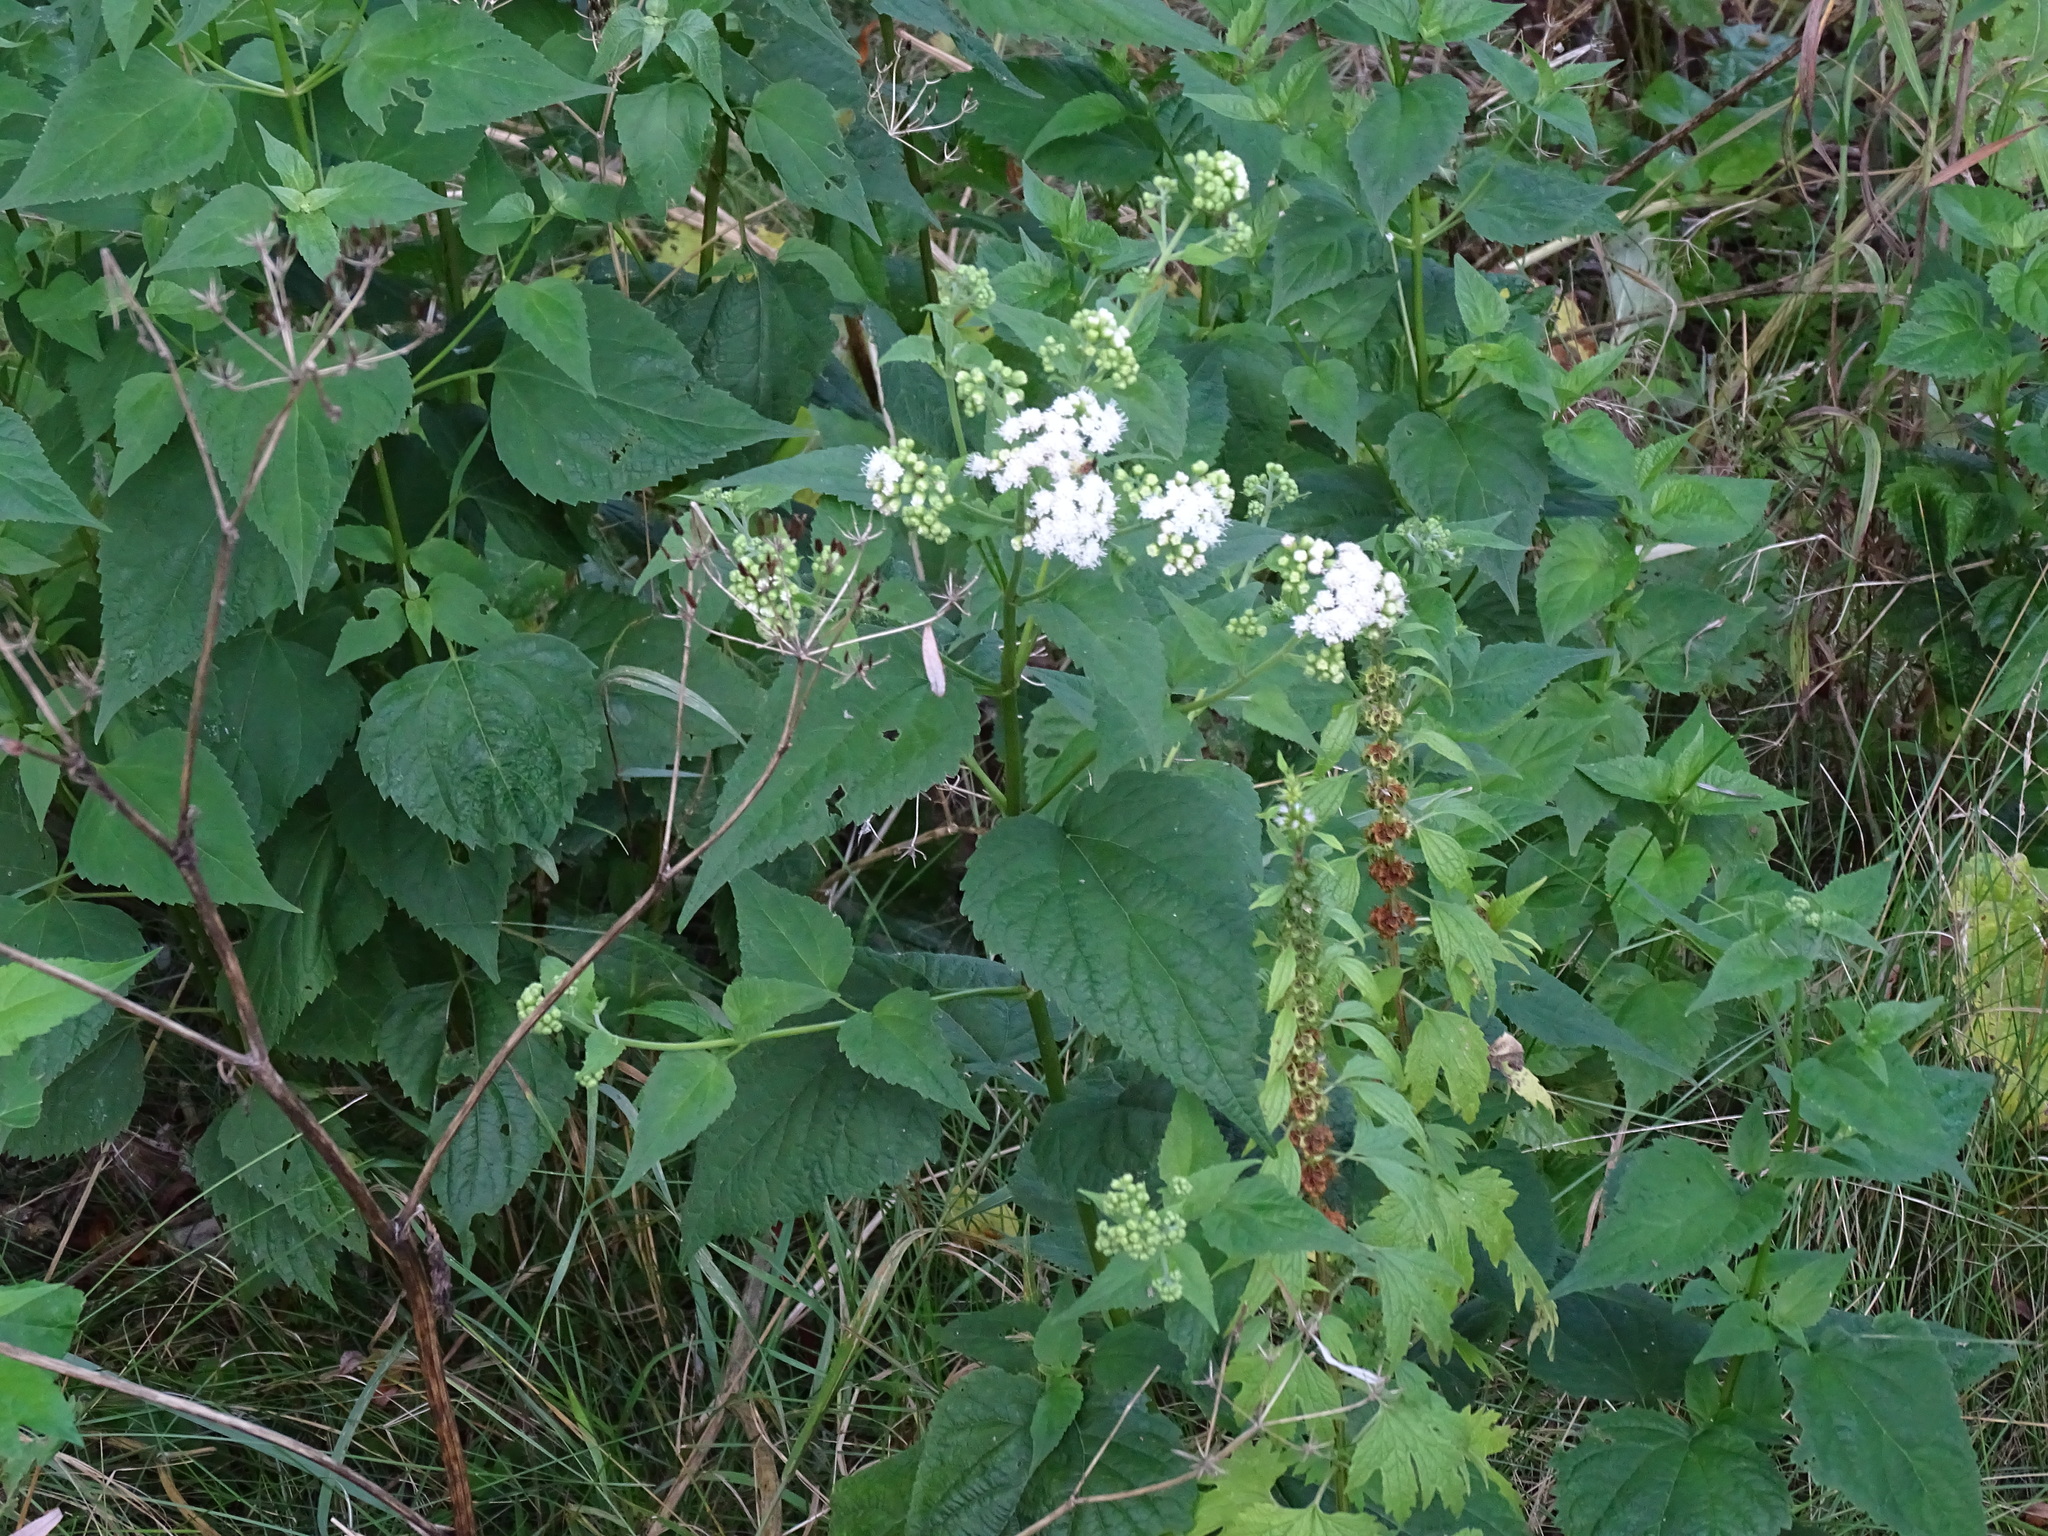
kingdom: Plantae
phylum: Tracheophyta
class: Magnoliopsida
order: Asterales
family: Asteraceae
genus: Ageratina
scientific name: Ageratina altissima
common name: White snakeroot
